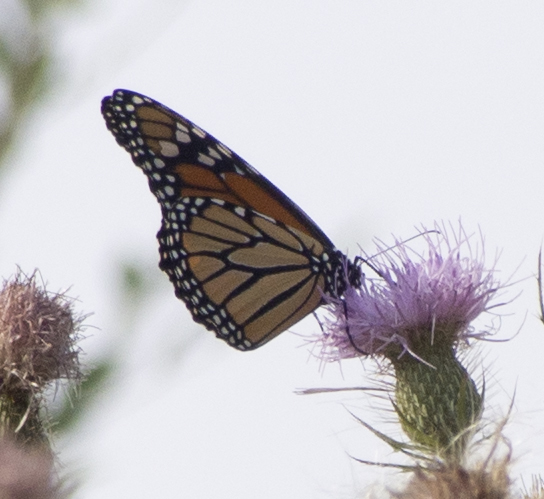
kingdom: Animalia
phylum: Arthropoda
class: Insecta
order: Lepidoptera
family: Nymphalidae
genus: Danaus
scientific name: Danaus plexippus
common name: Monarch
